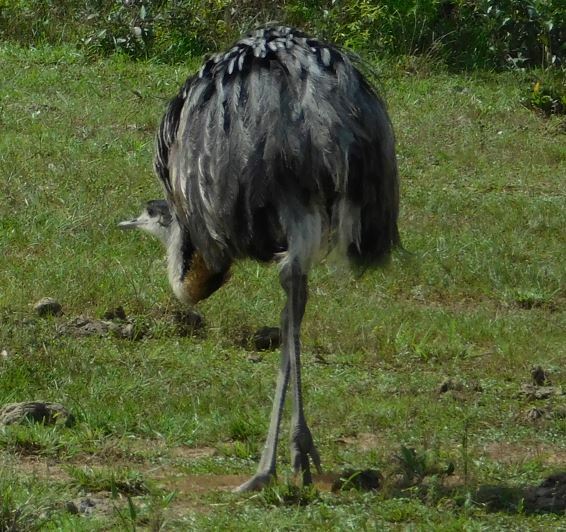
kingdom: Animalia
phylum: Chordata
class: Aves
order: Rheiformes
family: Rheidae
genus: Rhea
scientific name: Rhea americana
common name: Greater rhea
